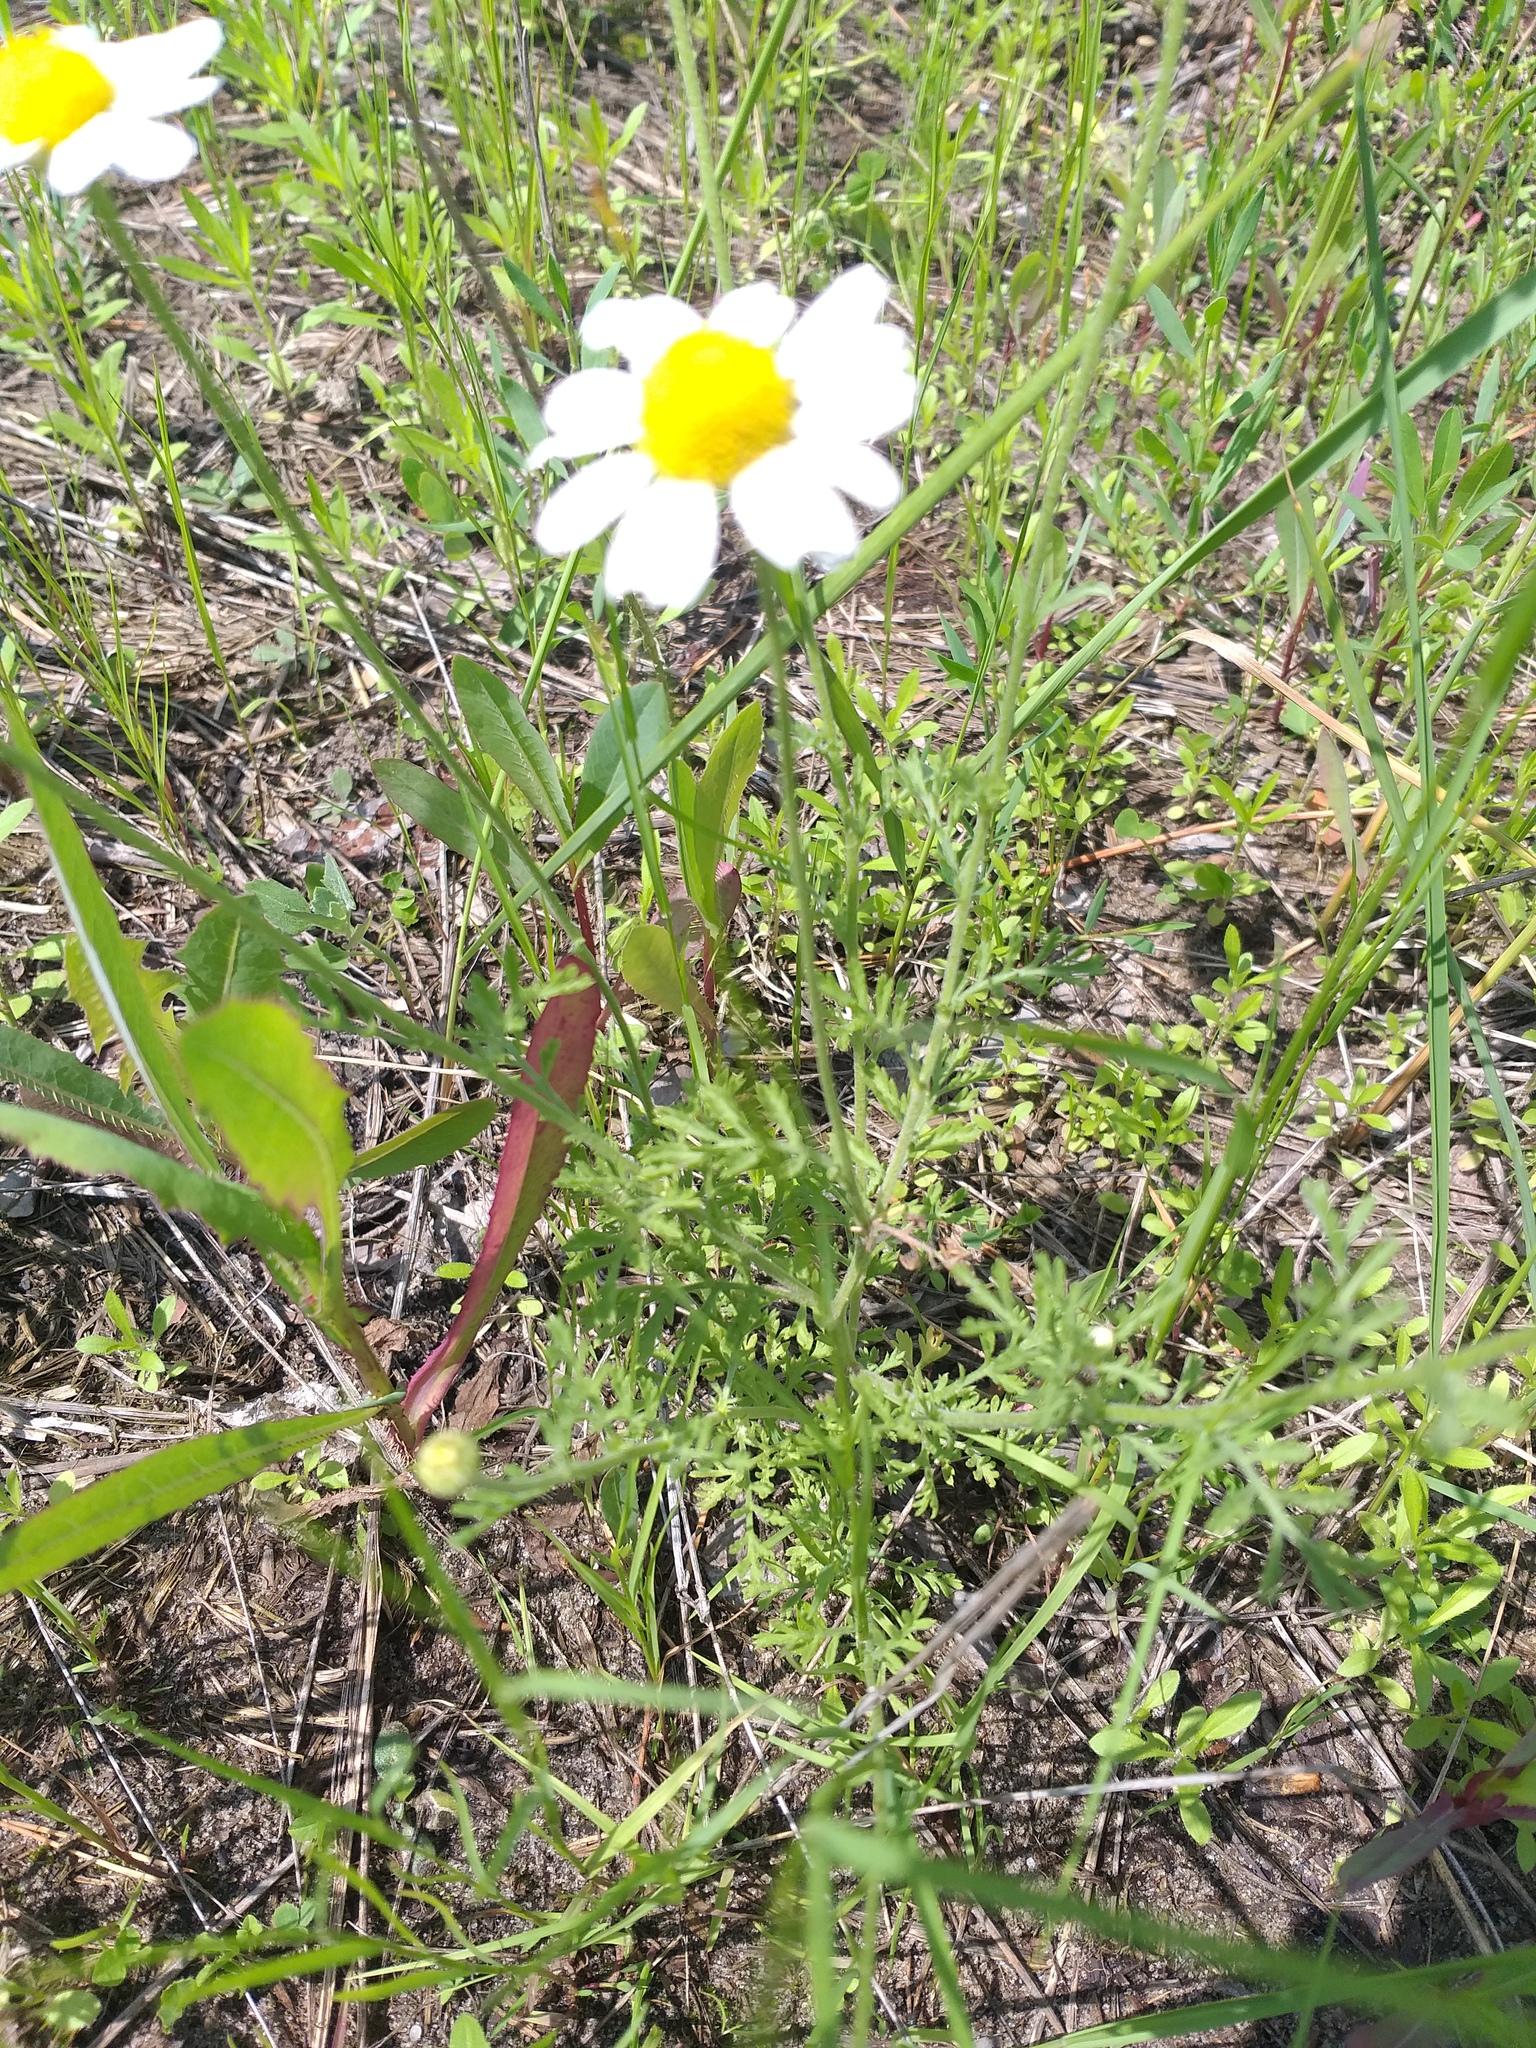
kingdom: Plantae
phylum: Tracheophyta
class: Magnoliopsida
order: Asterales
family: Asteraceae
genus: Anthemis
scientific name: Anthemis ruthenica
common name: Eastern chamomile
